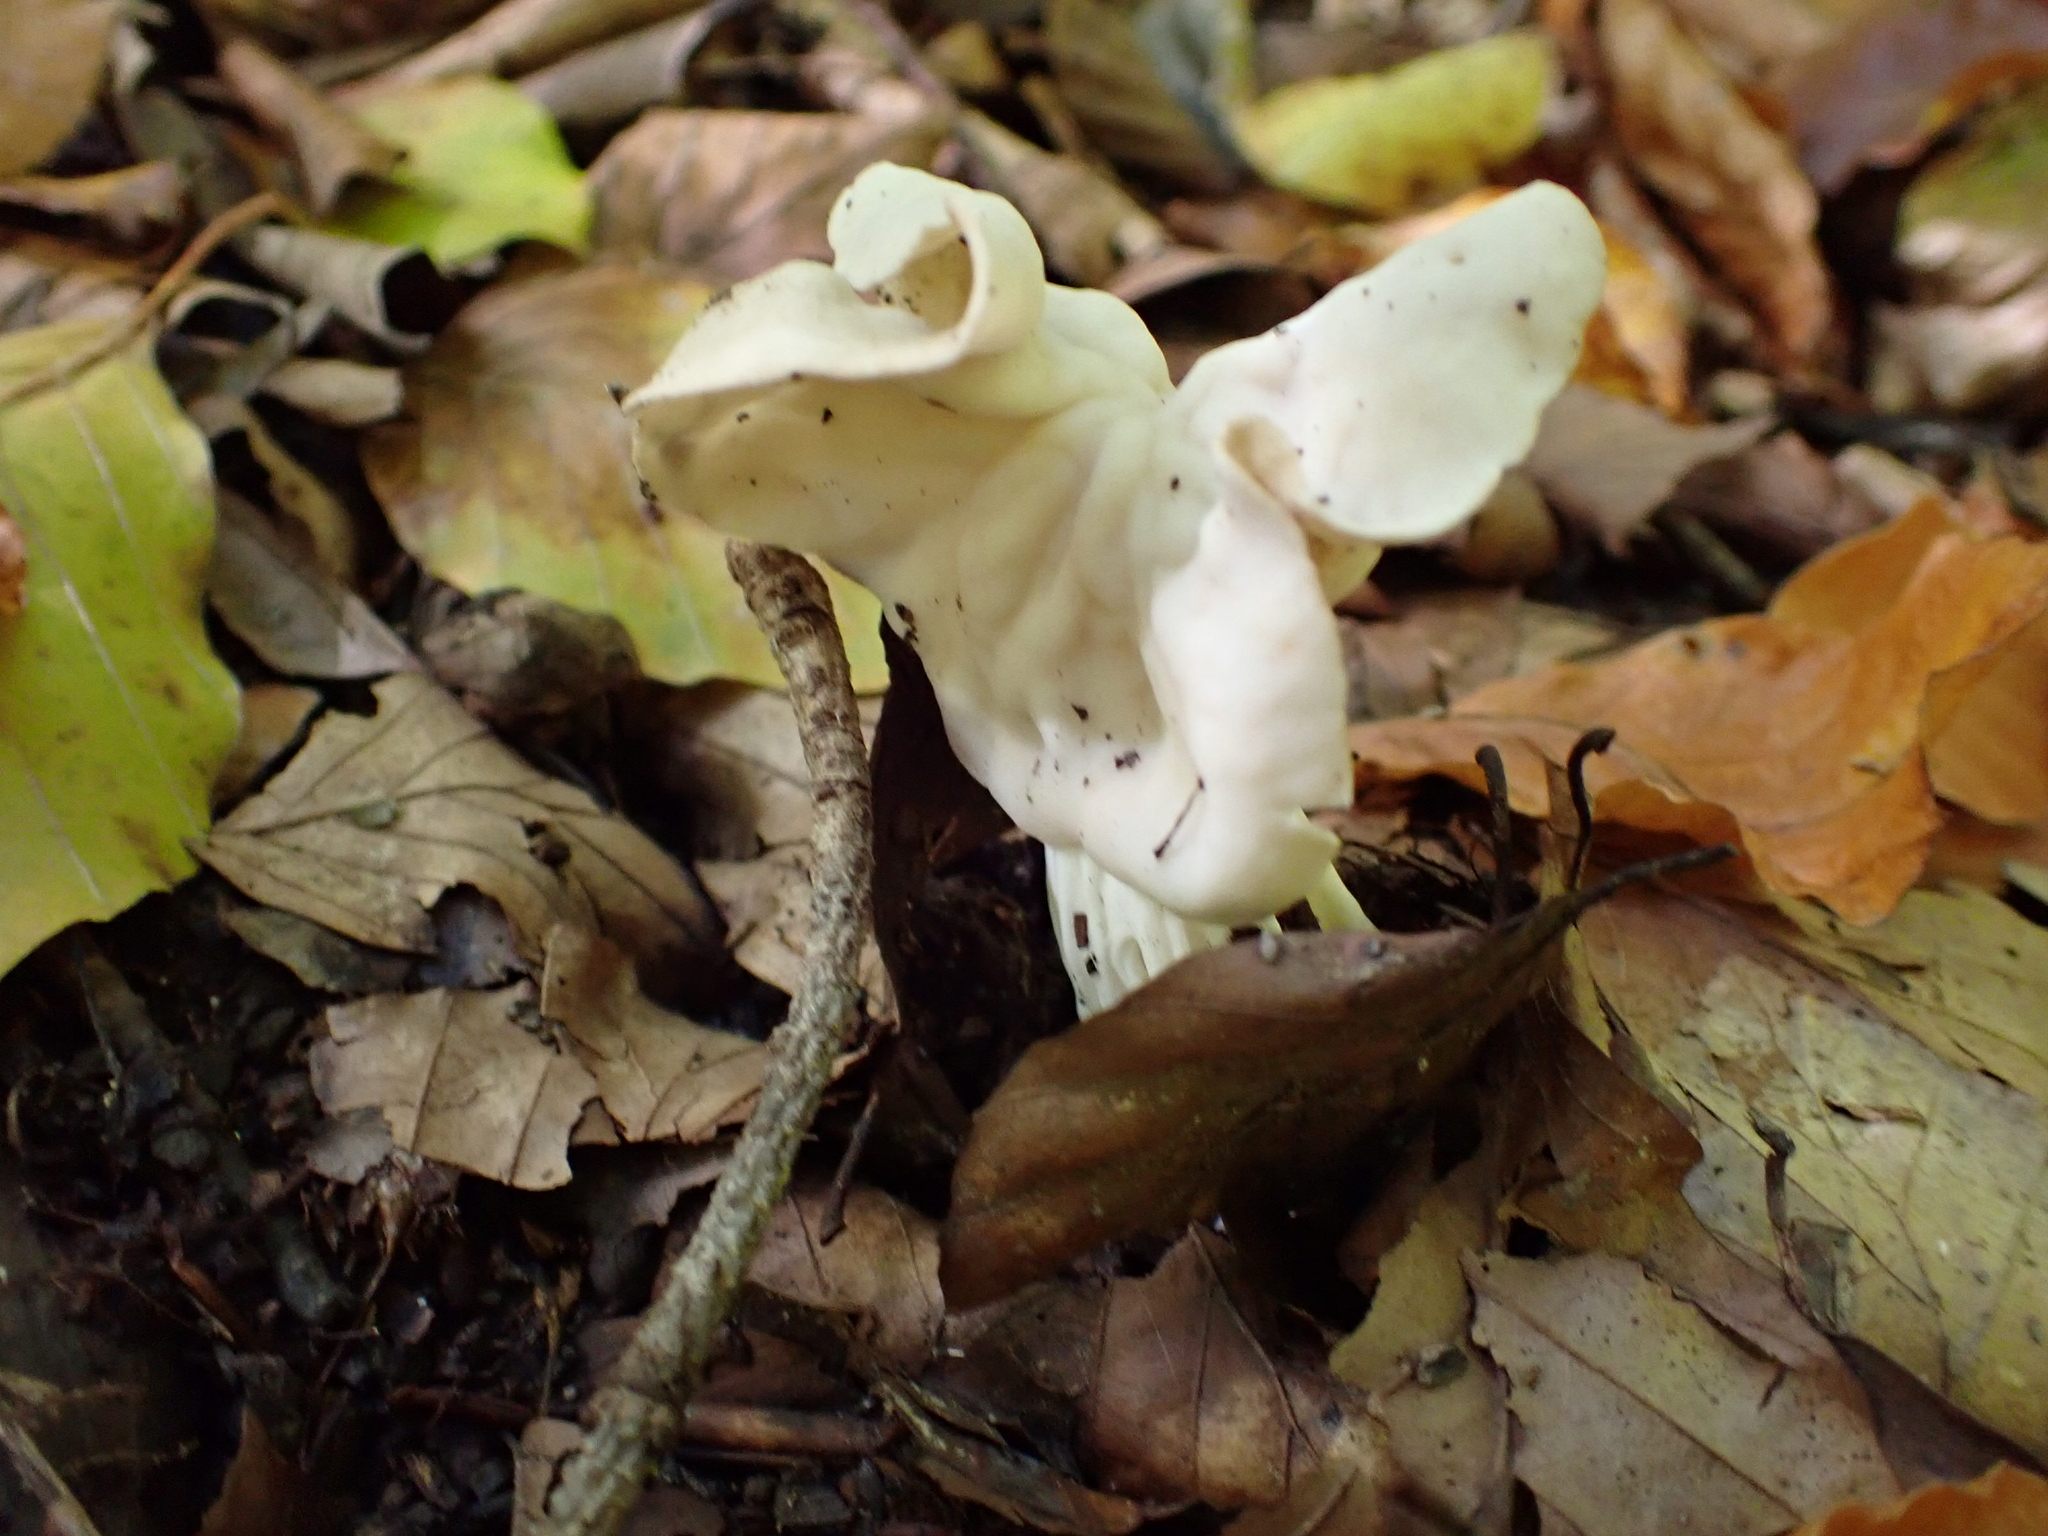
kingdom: Fungi
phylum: Ascomycota
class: Pezizomycetes
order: Pezizales
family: Helvellaceae
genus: Helvella
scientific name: Helvella crispa
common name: White saddle
